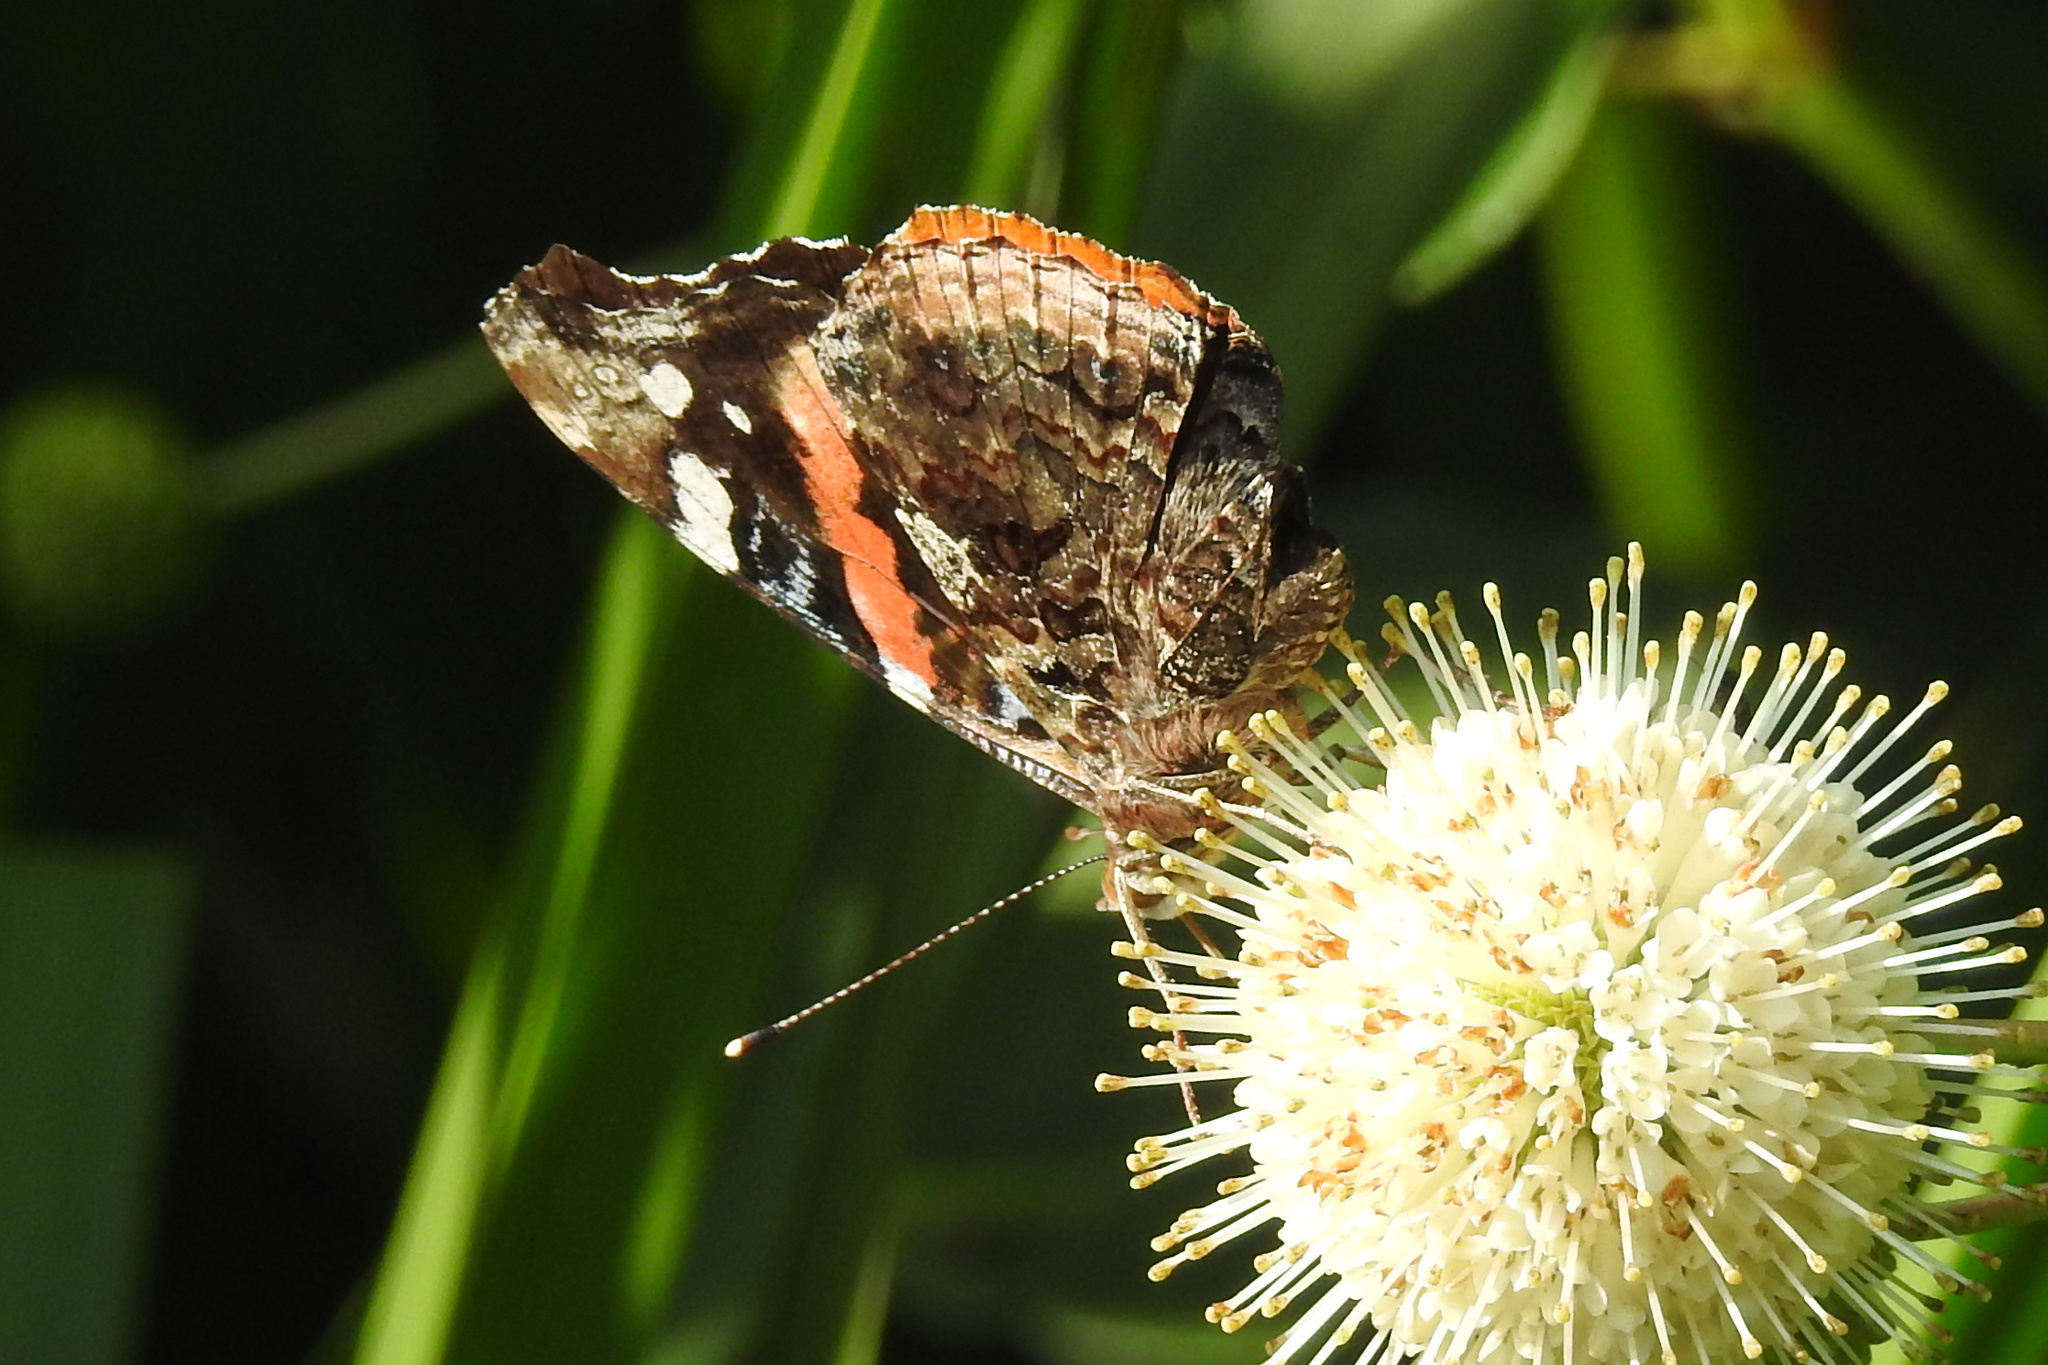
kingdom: Animalia
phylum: Arthropoda
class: Insecta
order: Lepidoptera
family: Nymphalidae
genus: Vanessa
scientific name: Vanessa atalanta
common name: Red admiral
